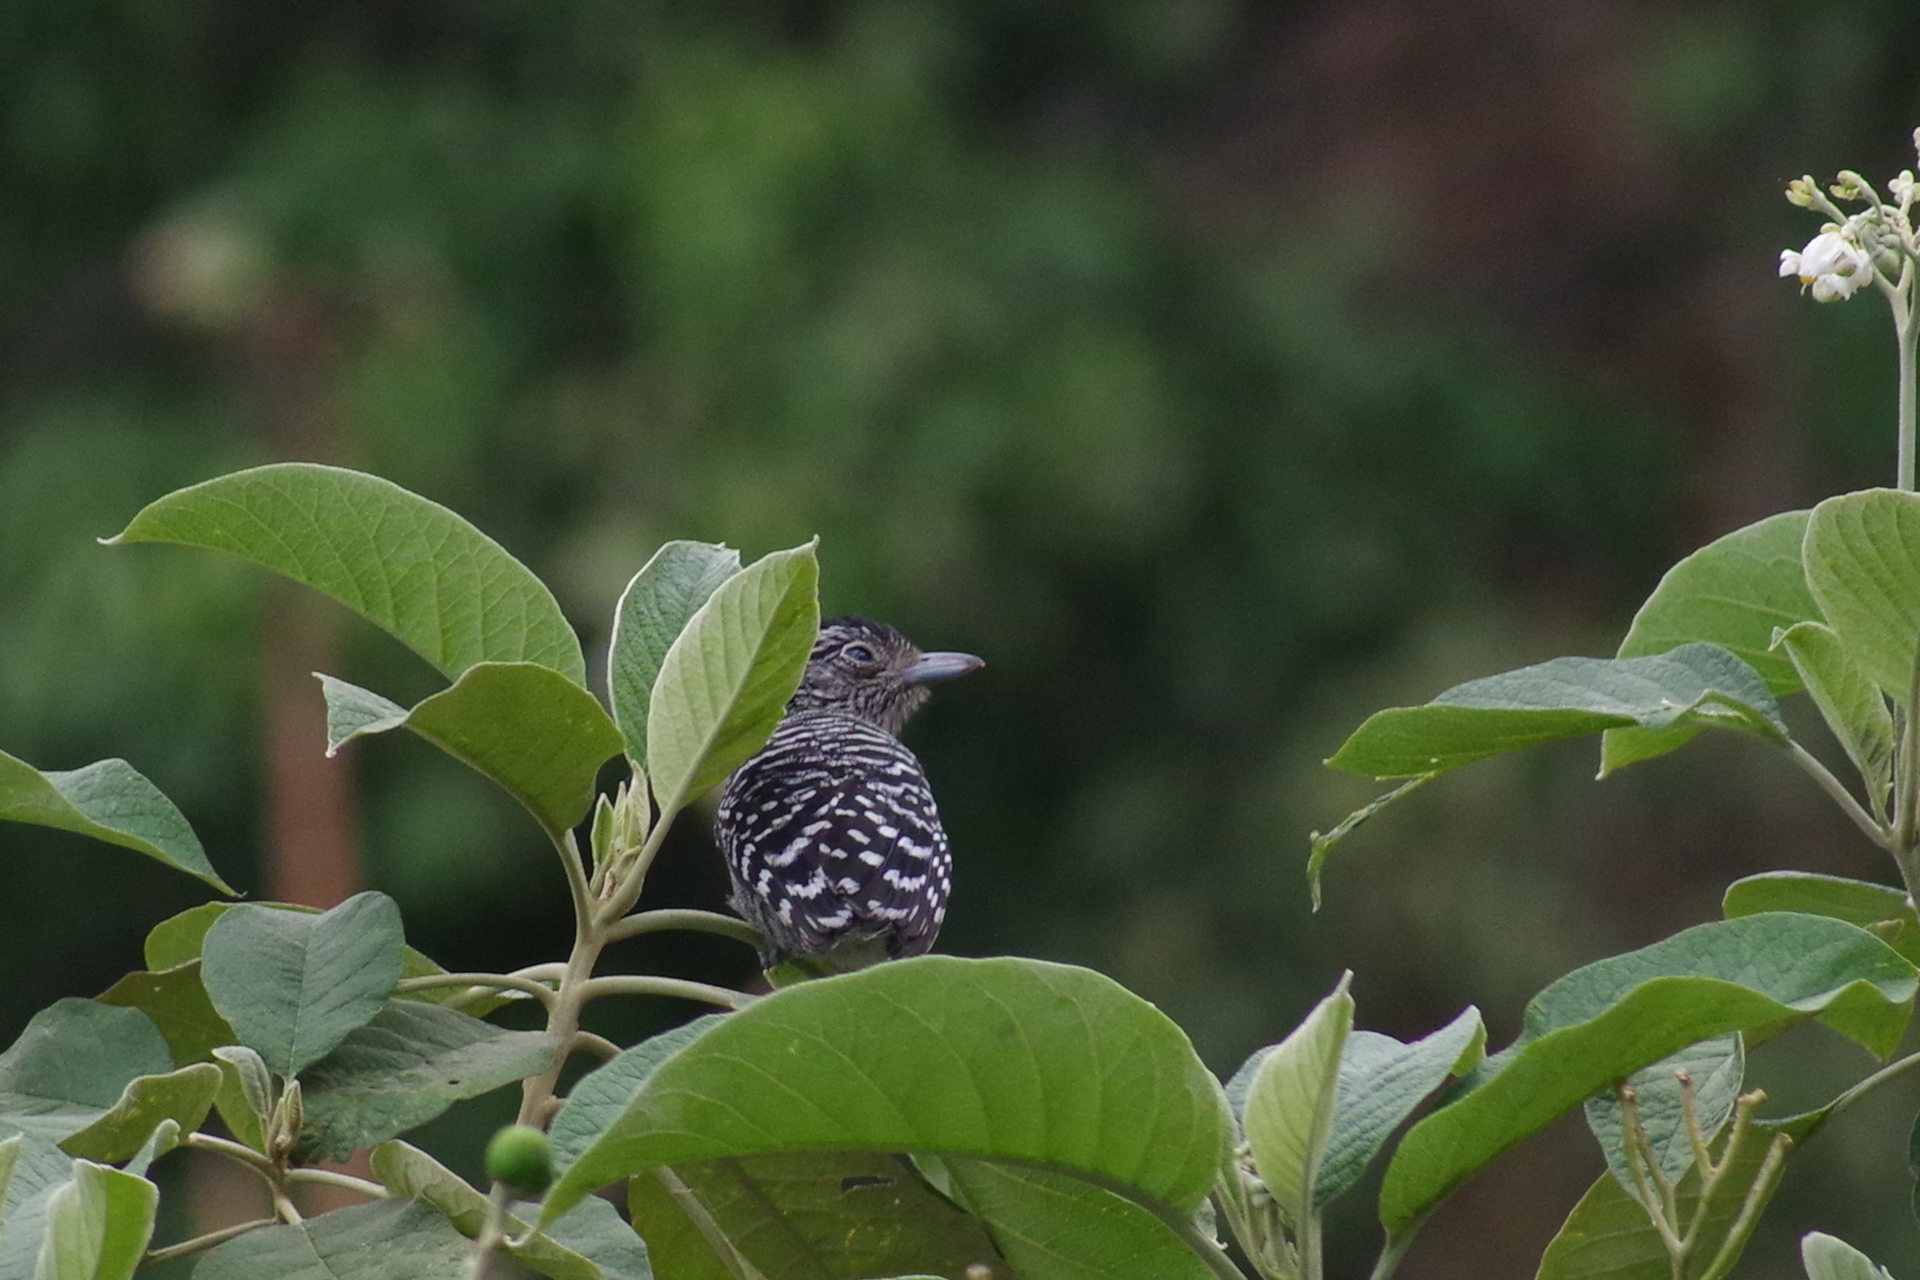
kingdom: Animalia
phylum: Chordata
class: Aves
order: Passeriformes
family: Thamnophilidae
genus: Thamnophilus
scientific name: Thamnophilus doliatus
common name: Barred antshrike
